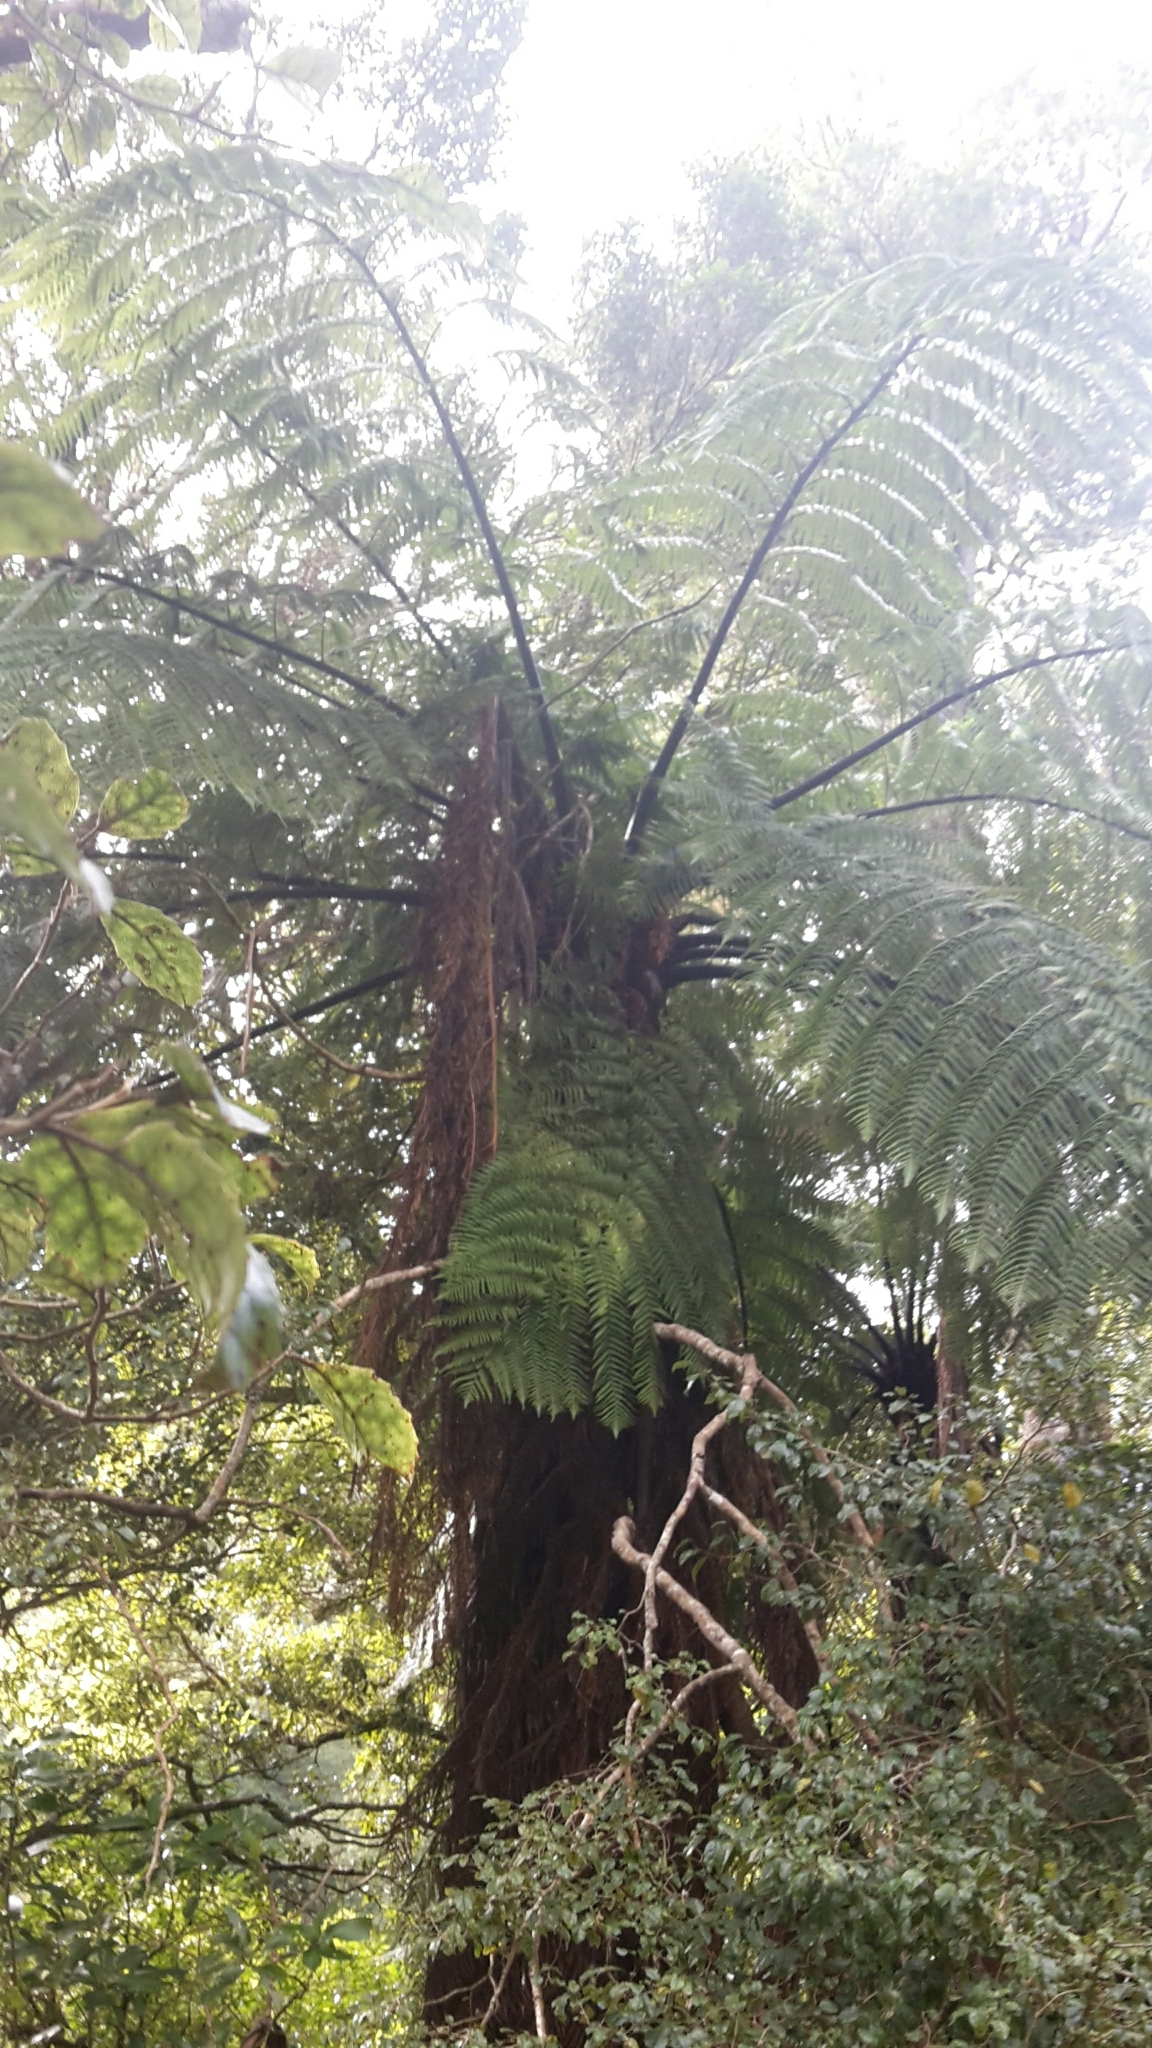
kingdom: Plantae
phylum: Tracheophyta
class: Polypodiopsida
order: Cyatheales
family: Cyatheaceae
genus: Sphaeropteris
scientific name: Sphaeropteris medullaris
